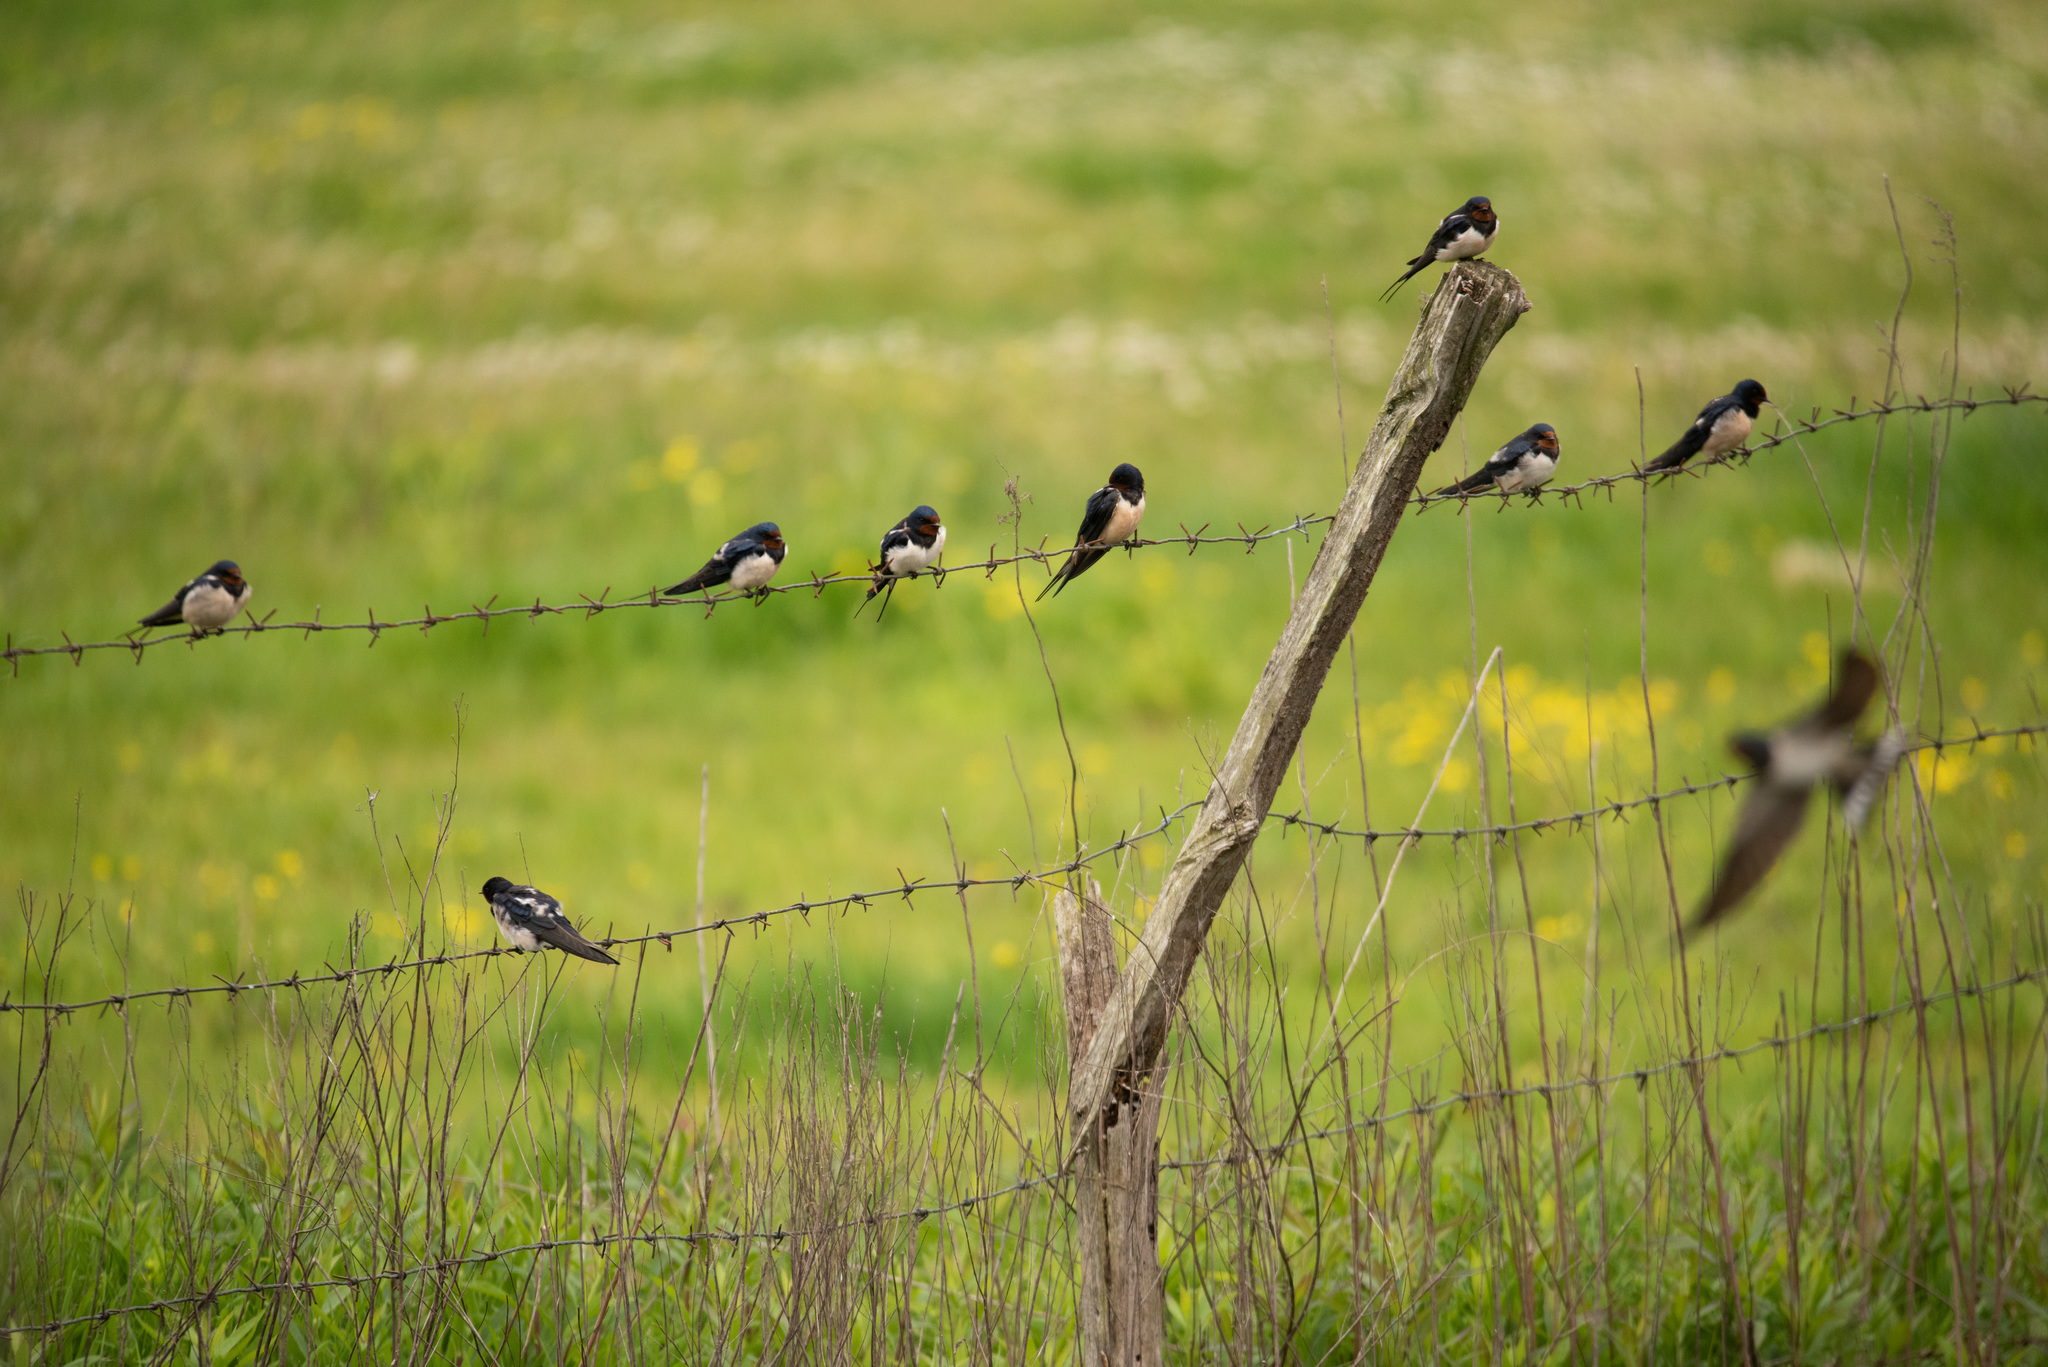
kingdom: Animalia
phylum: Chordata
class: Aves
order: Passeriformes
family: Hirundinidae
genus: Hirundo
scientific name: Hirundo rustica
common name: Barn swallow
